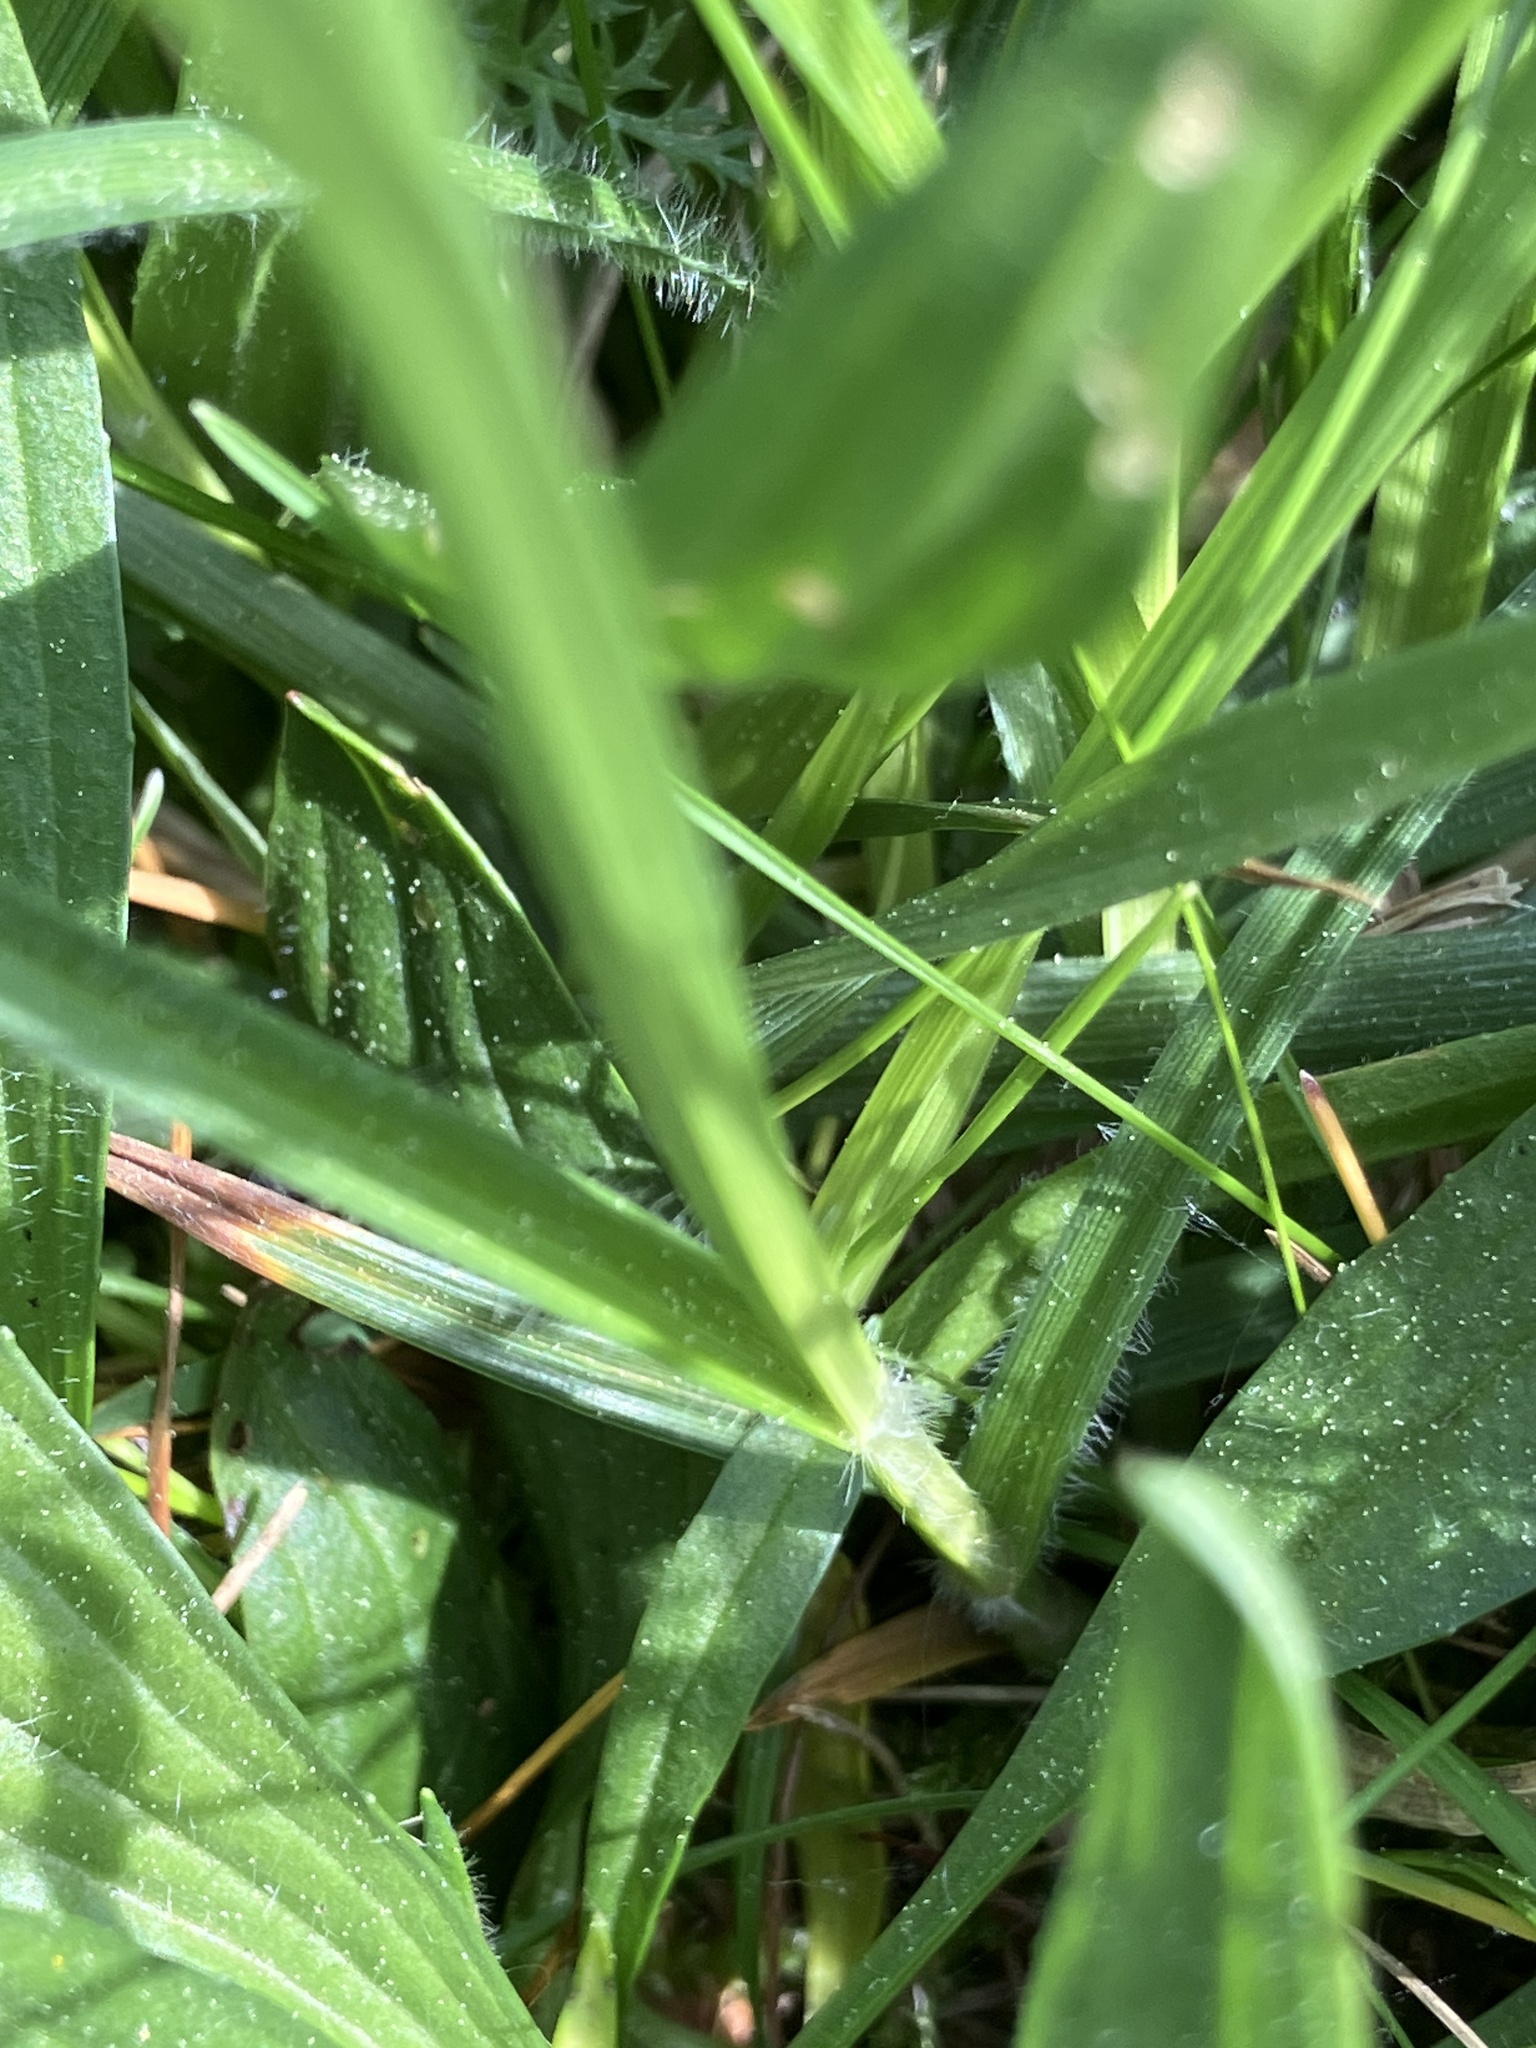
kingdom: Plantae
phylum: Tracheophyta
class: Liliopsida
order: Poales
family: Cyperaceae
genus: Carex
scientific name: Carex hirta
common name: Hairy sedge
